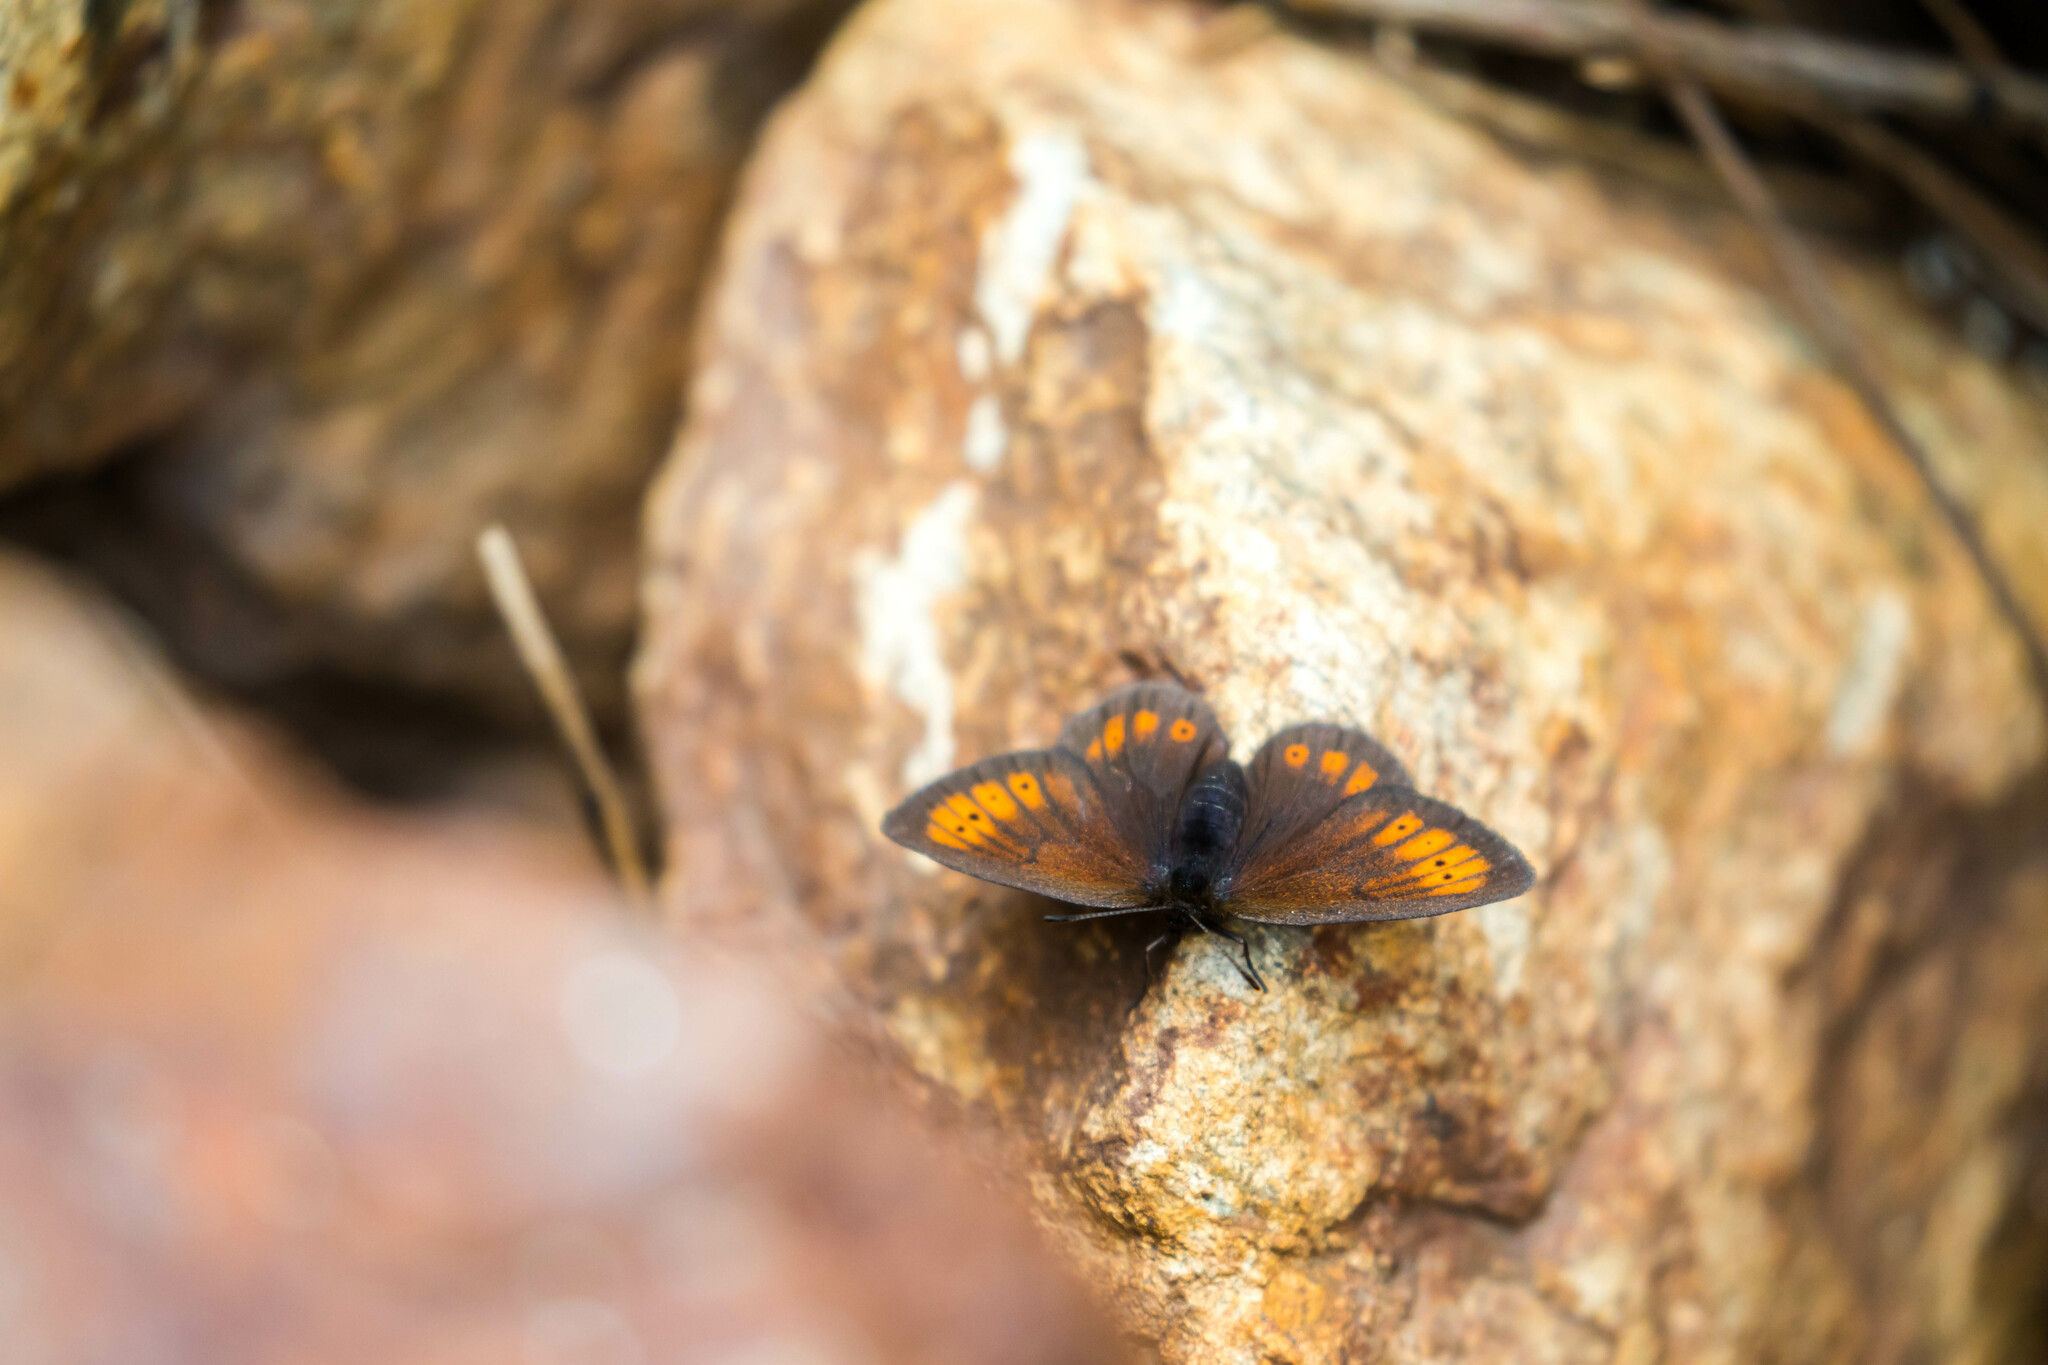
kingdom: Animalia
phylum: Arthropoda
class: Insecta
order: Lepidoptera
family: Nymphalidae
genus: Erebia
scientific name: Erebia epiphron
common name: Mountain ringlet
